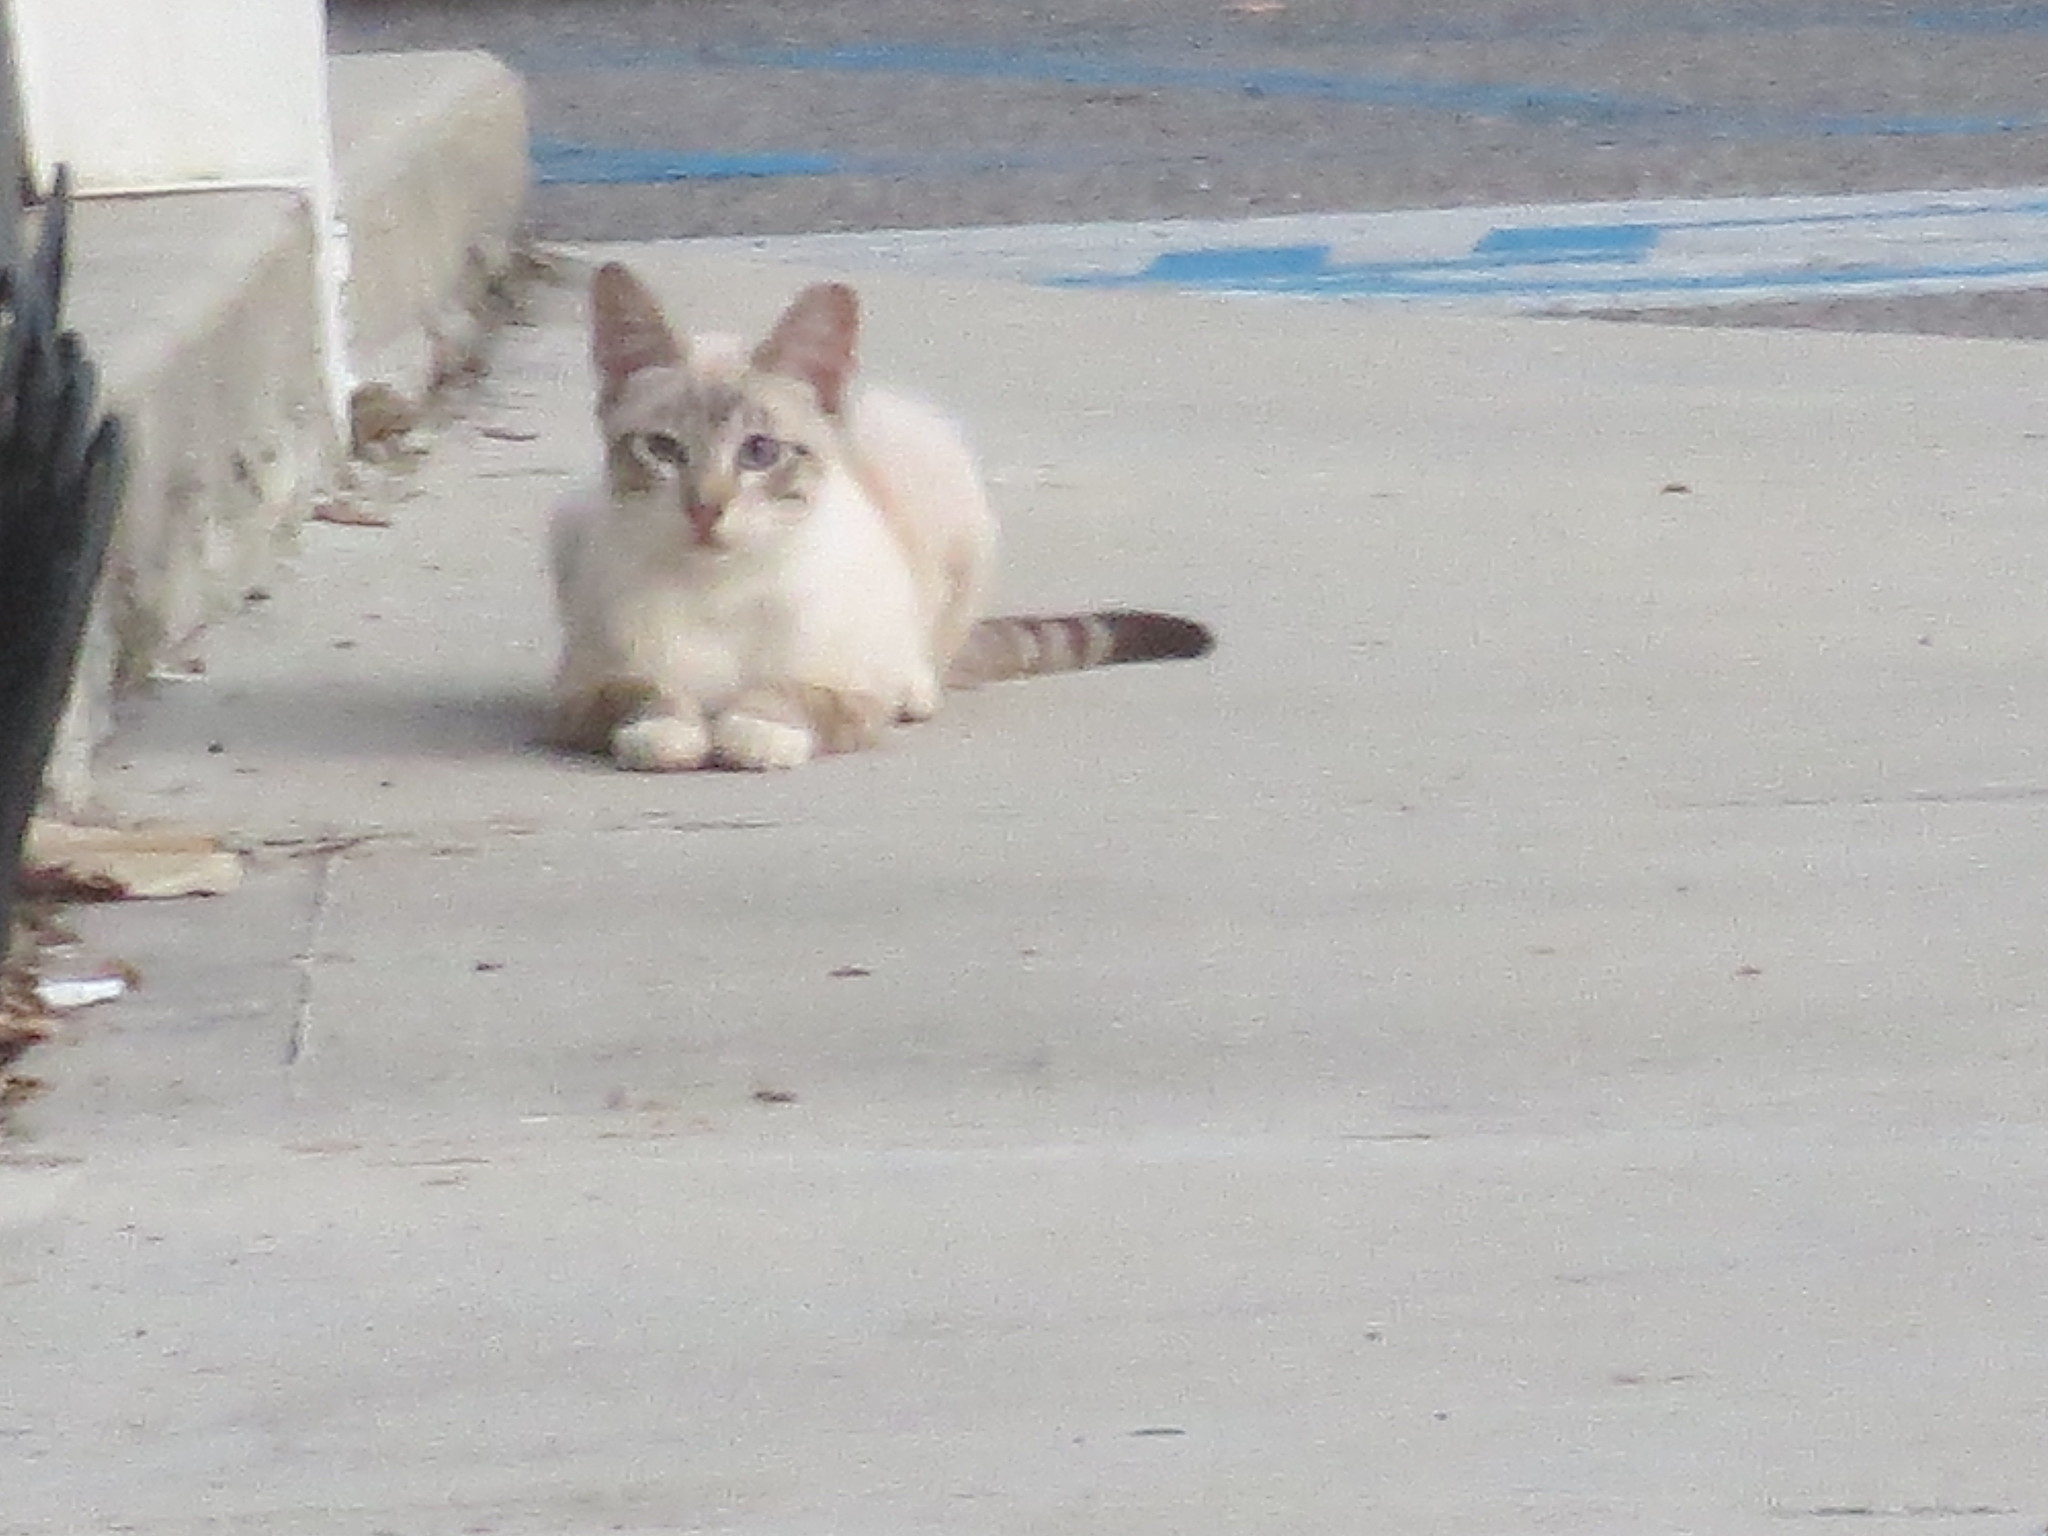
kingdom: Animalia
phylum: Chordata
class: Mammalia
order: Carnivora
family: Felidae
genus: Felis
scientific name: Felis catus
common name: Domestic cat
